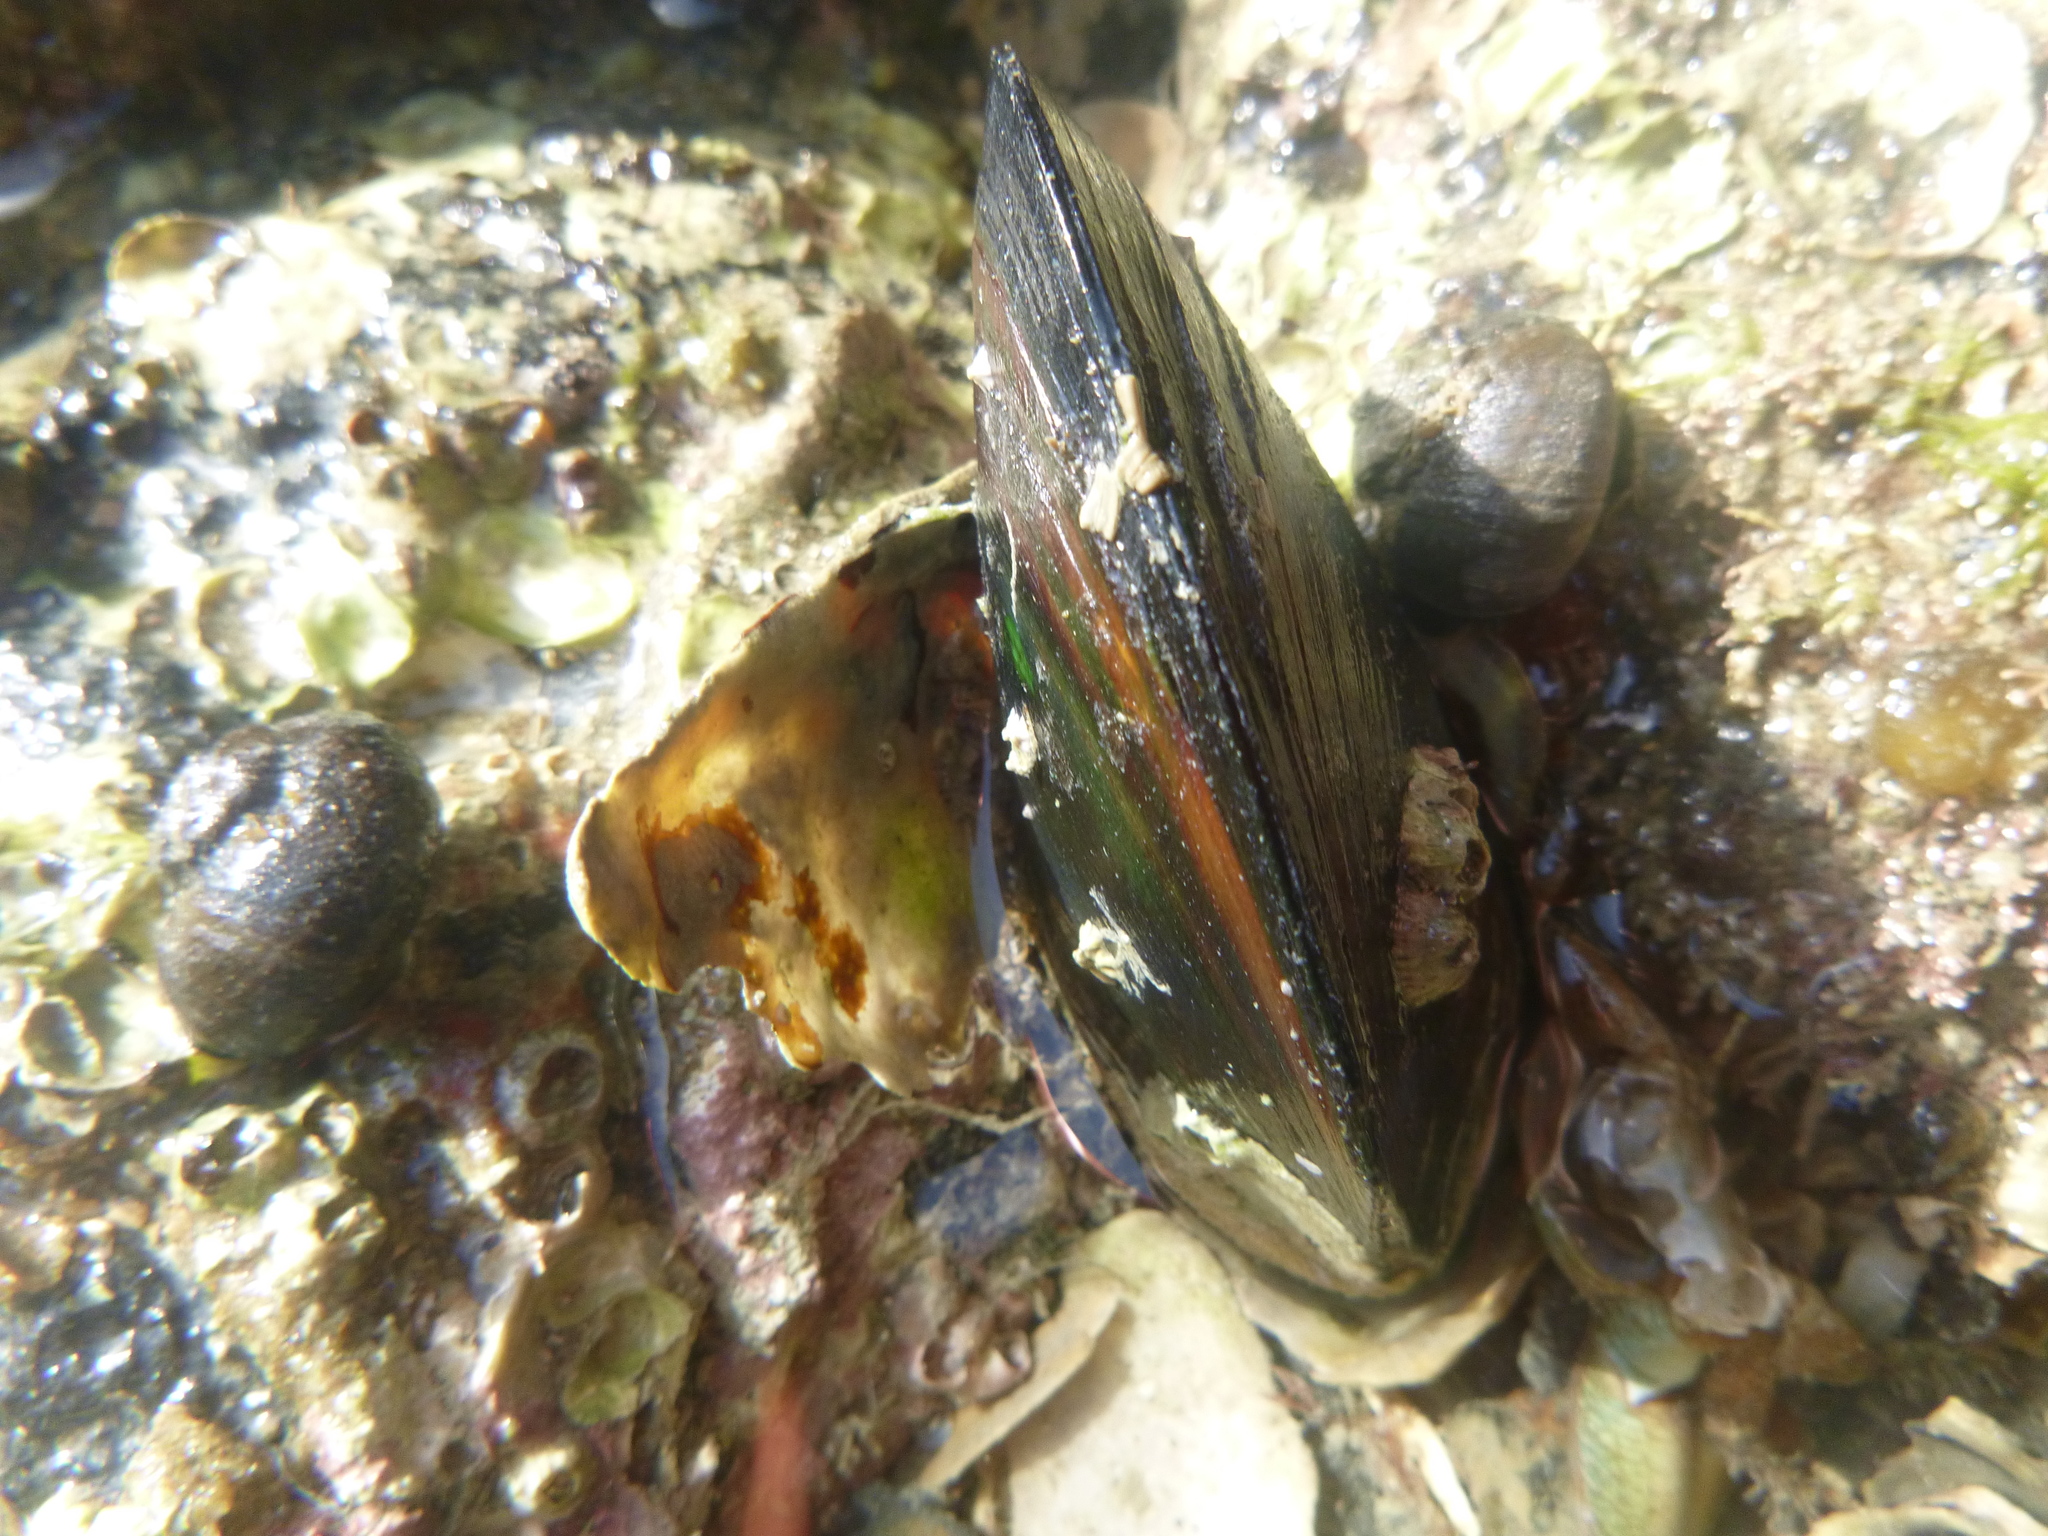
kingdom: Animalia
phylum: Mollusca
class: Bivalvia
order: Mytilida
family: Mytilidae
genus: Perna
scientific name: Perna canaliculus
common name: New zealand greenshelltm
